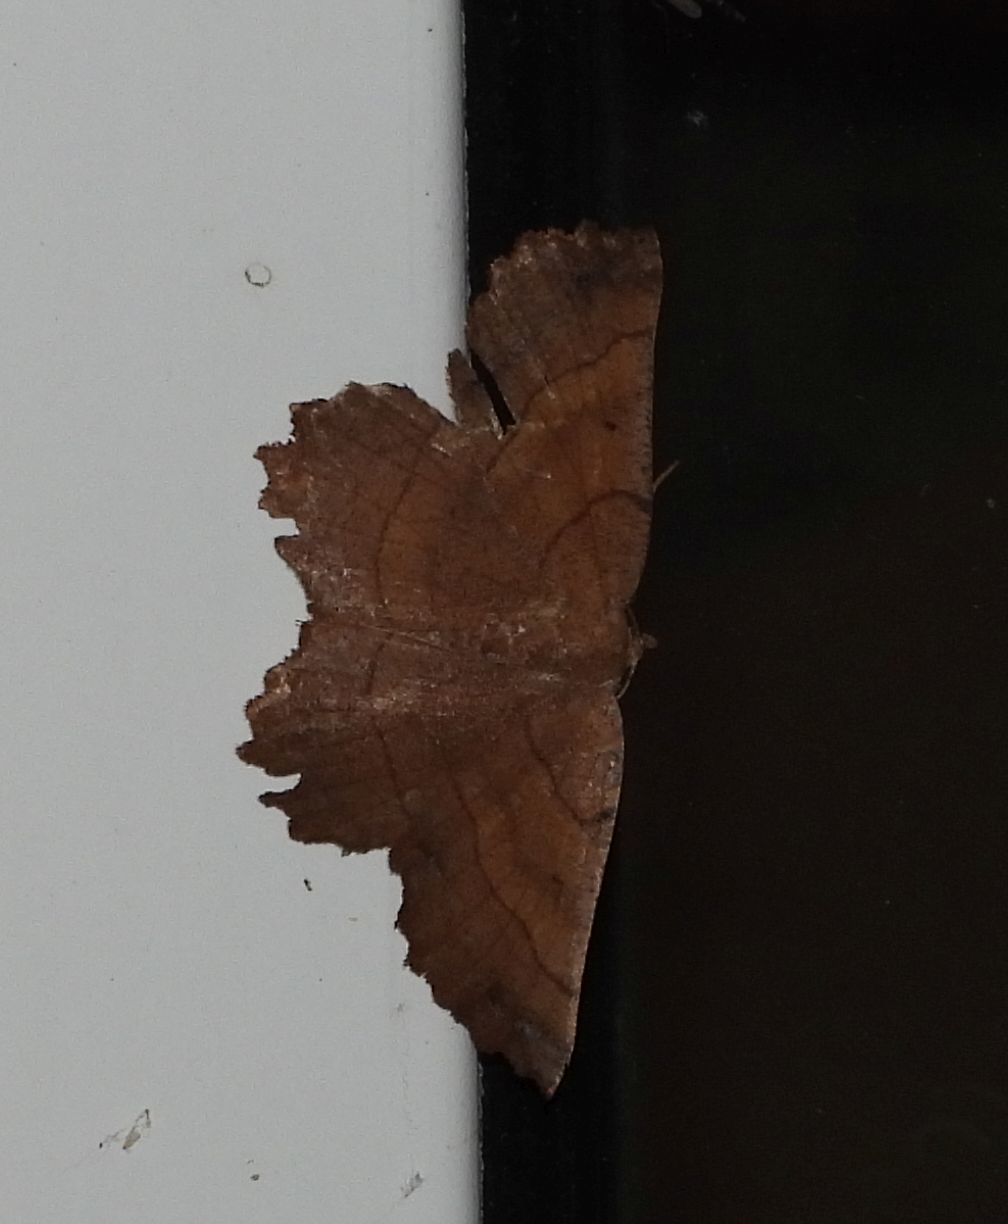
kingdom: Animalia
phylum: Arthropoda
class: Insecta
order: Lepidoptera
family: Geometridae
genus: Euchlaena
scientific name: Euchlaena johnsonaria
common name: Johnson's euchlaena
